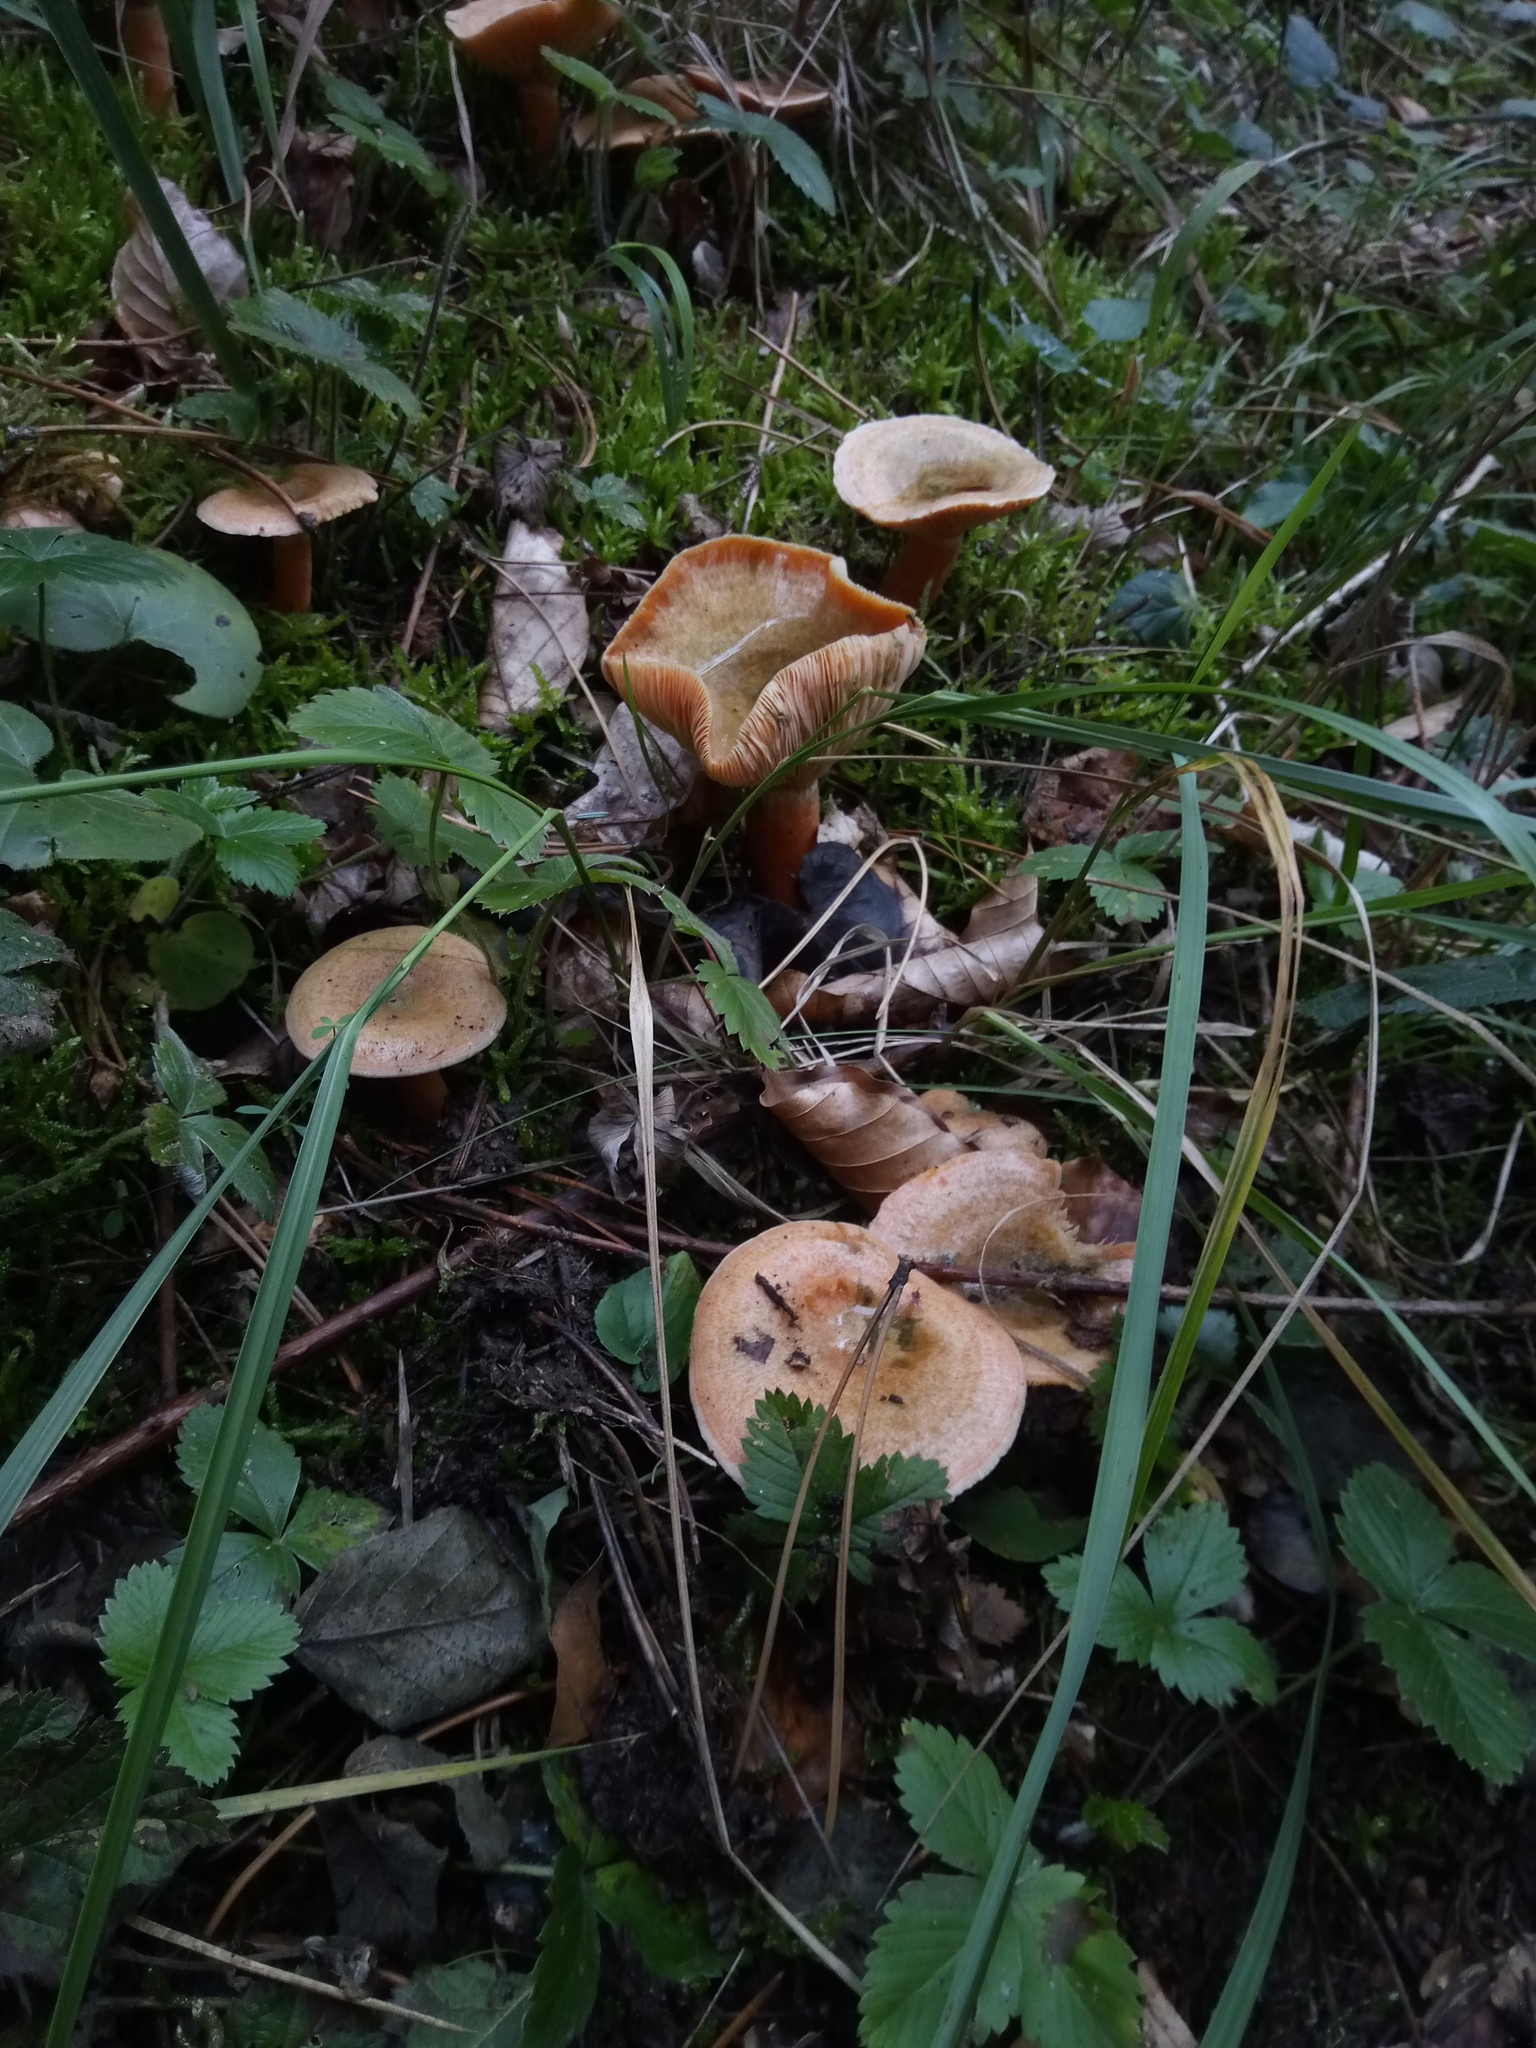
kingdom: Fungi
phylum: Basidiomycota
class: Agaricomycetes
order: Russulales
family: Russulaceae
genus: Lactarius
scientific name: Lactarius deterrimus
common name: False saffron milkcap
